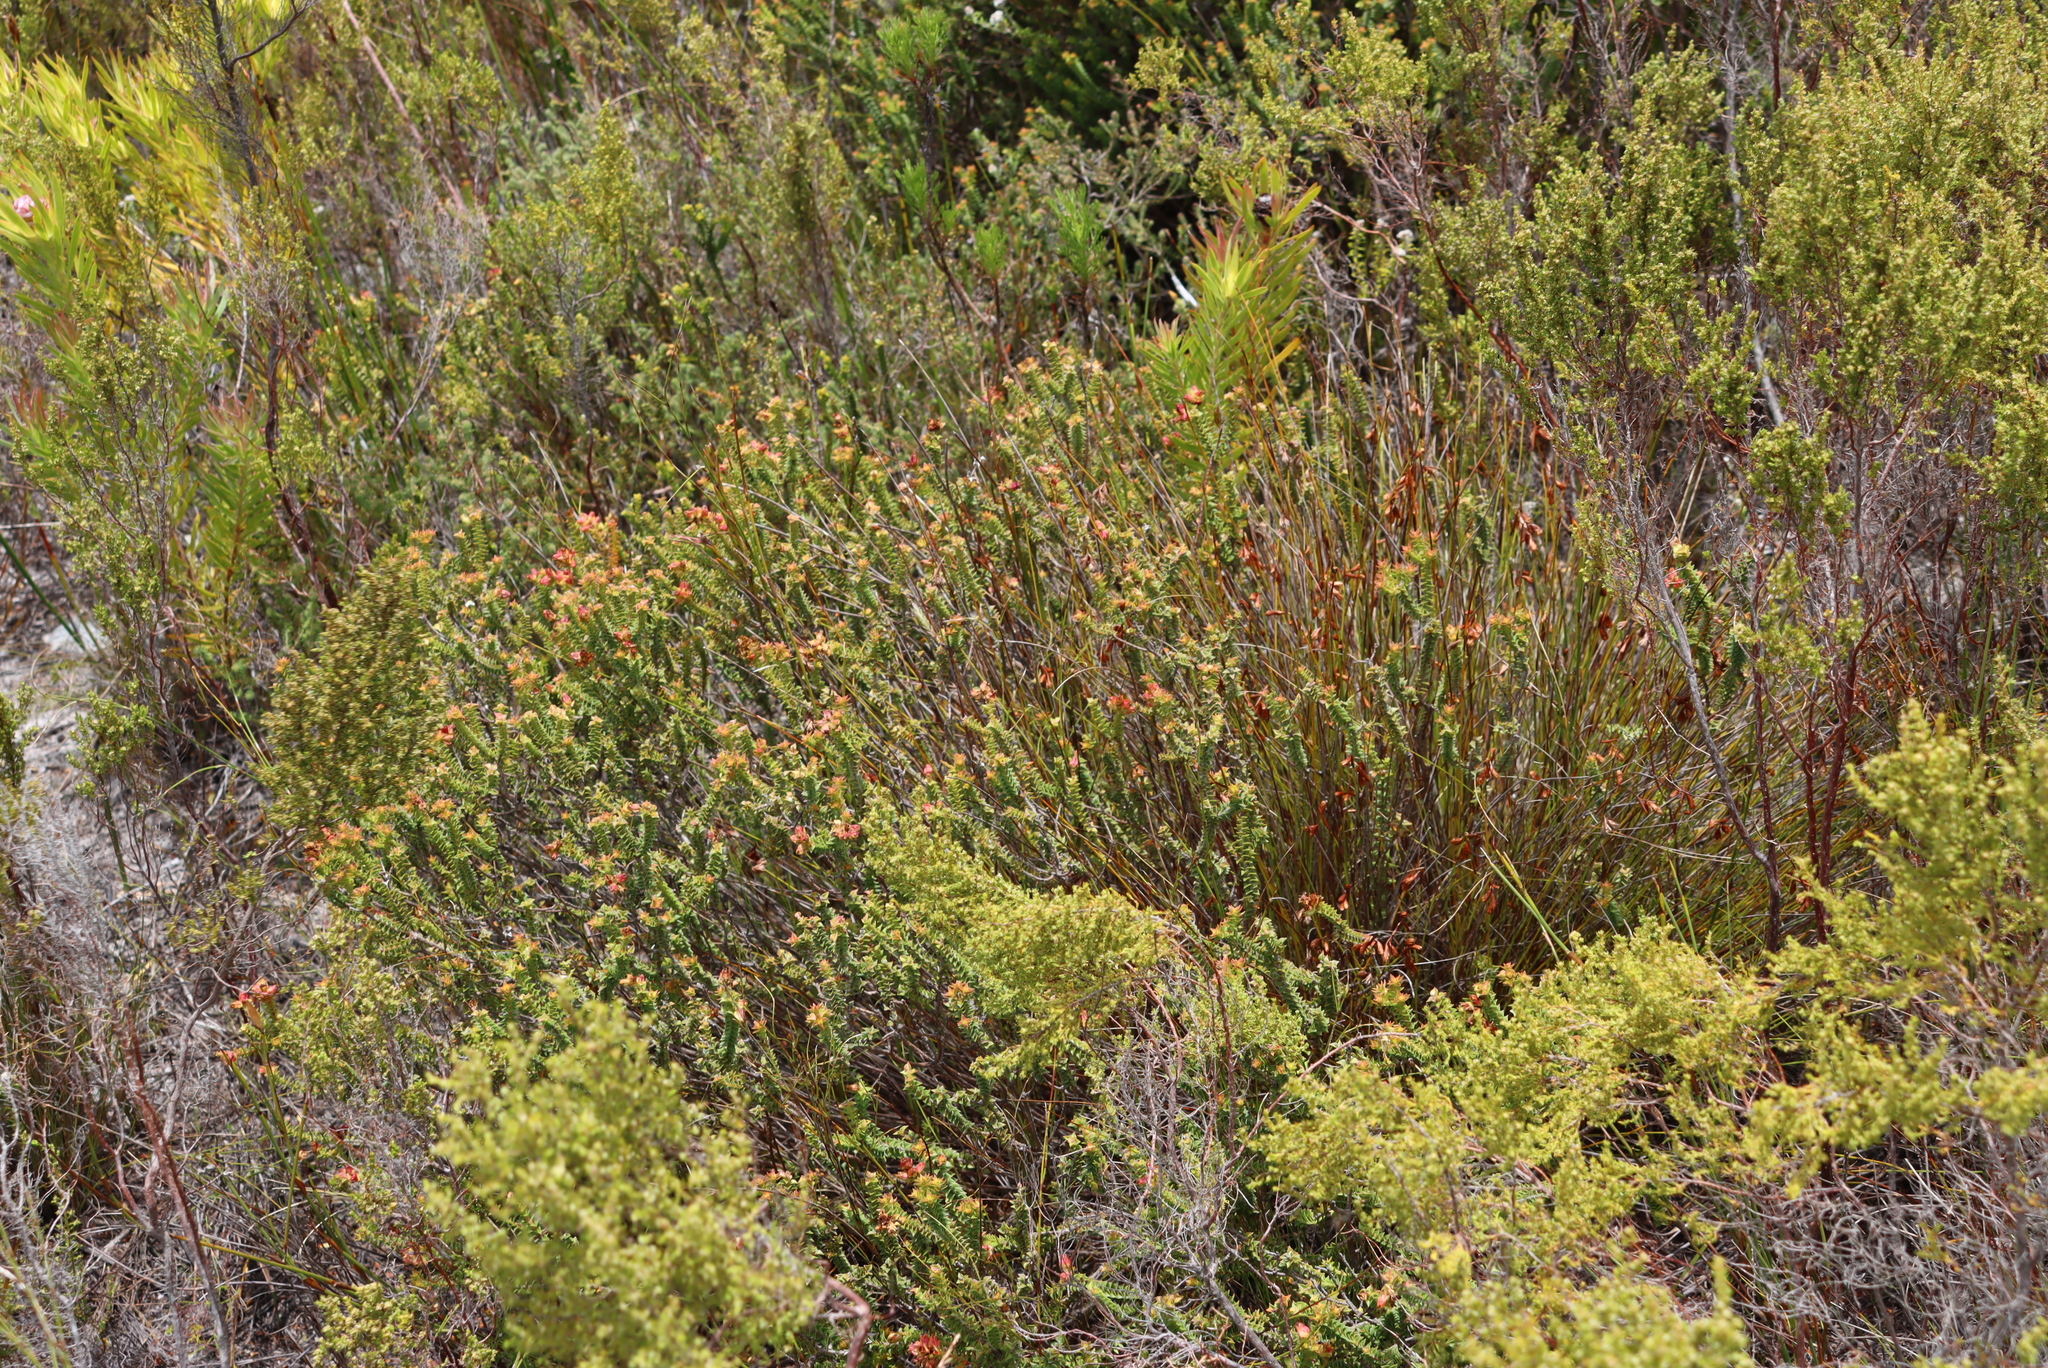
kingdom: Plantae
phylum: Tracheophyta
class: Magnoliopsida
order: Myrtales
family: Penaeaceae
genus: Penaea
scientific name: Penaea mucronata
